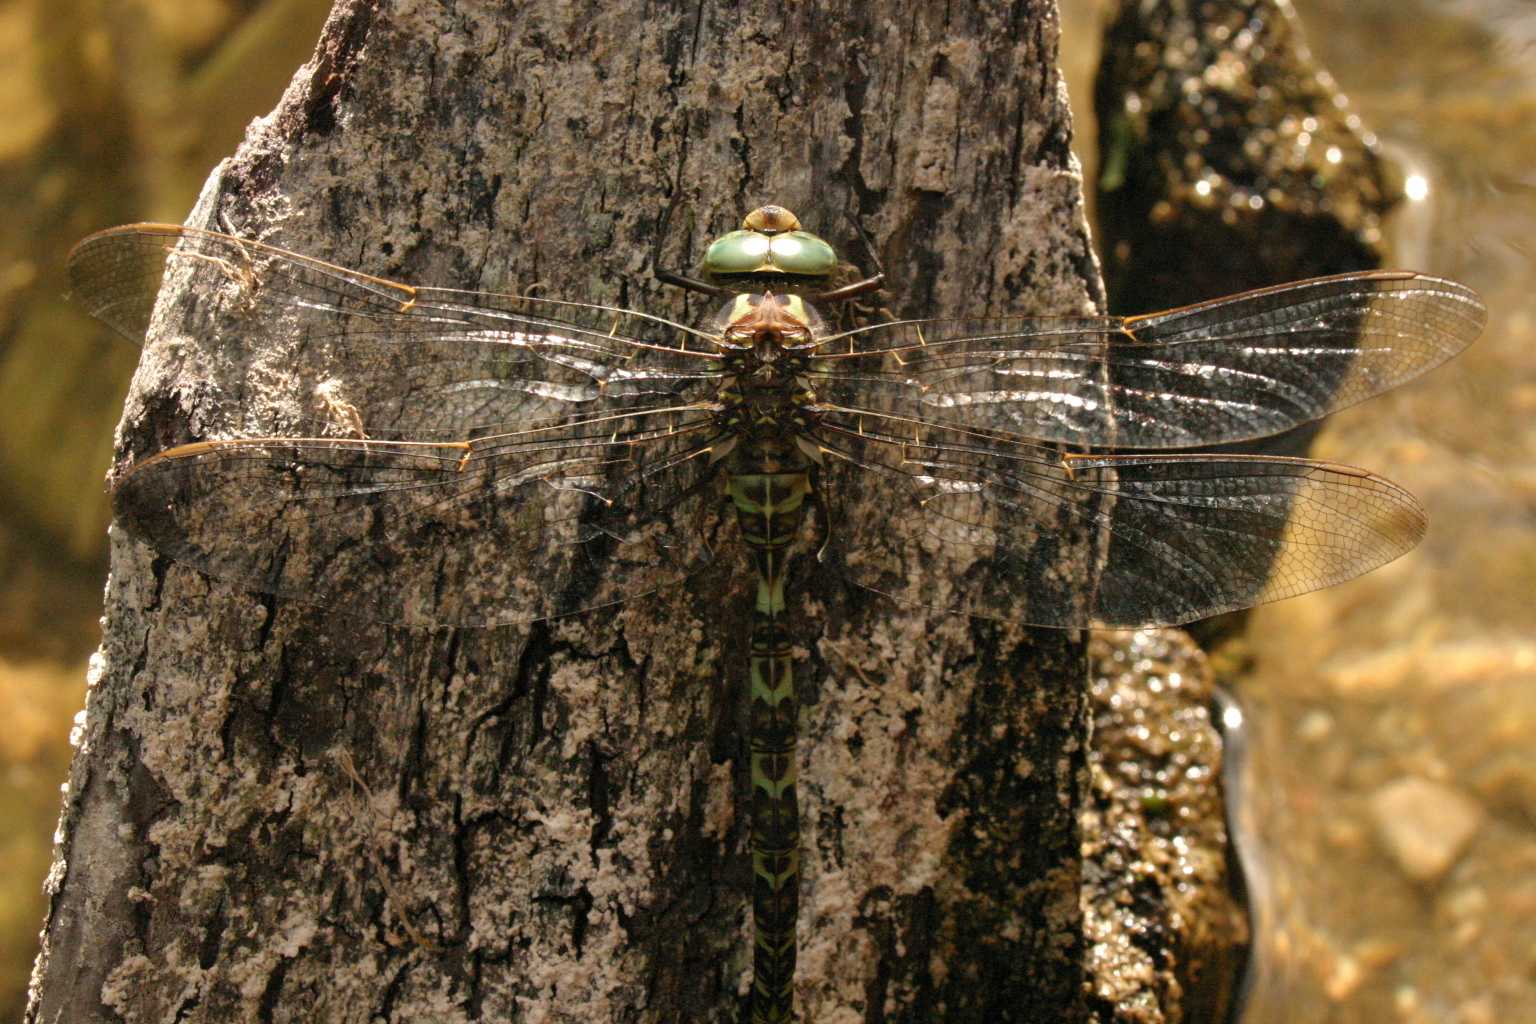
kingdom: Animalia
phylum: Arthropoda
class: Insecta
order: Odonata
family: Aeshnidae
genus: Boyeria
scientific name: Boyeria irene
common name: Western spectre
